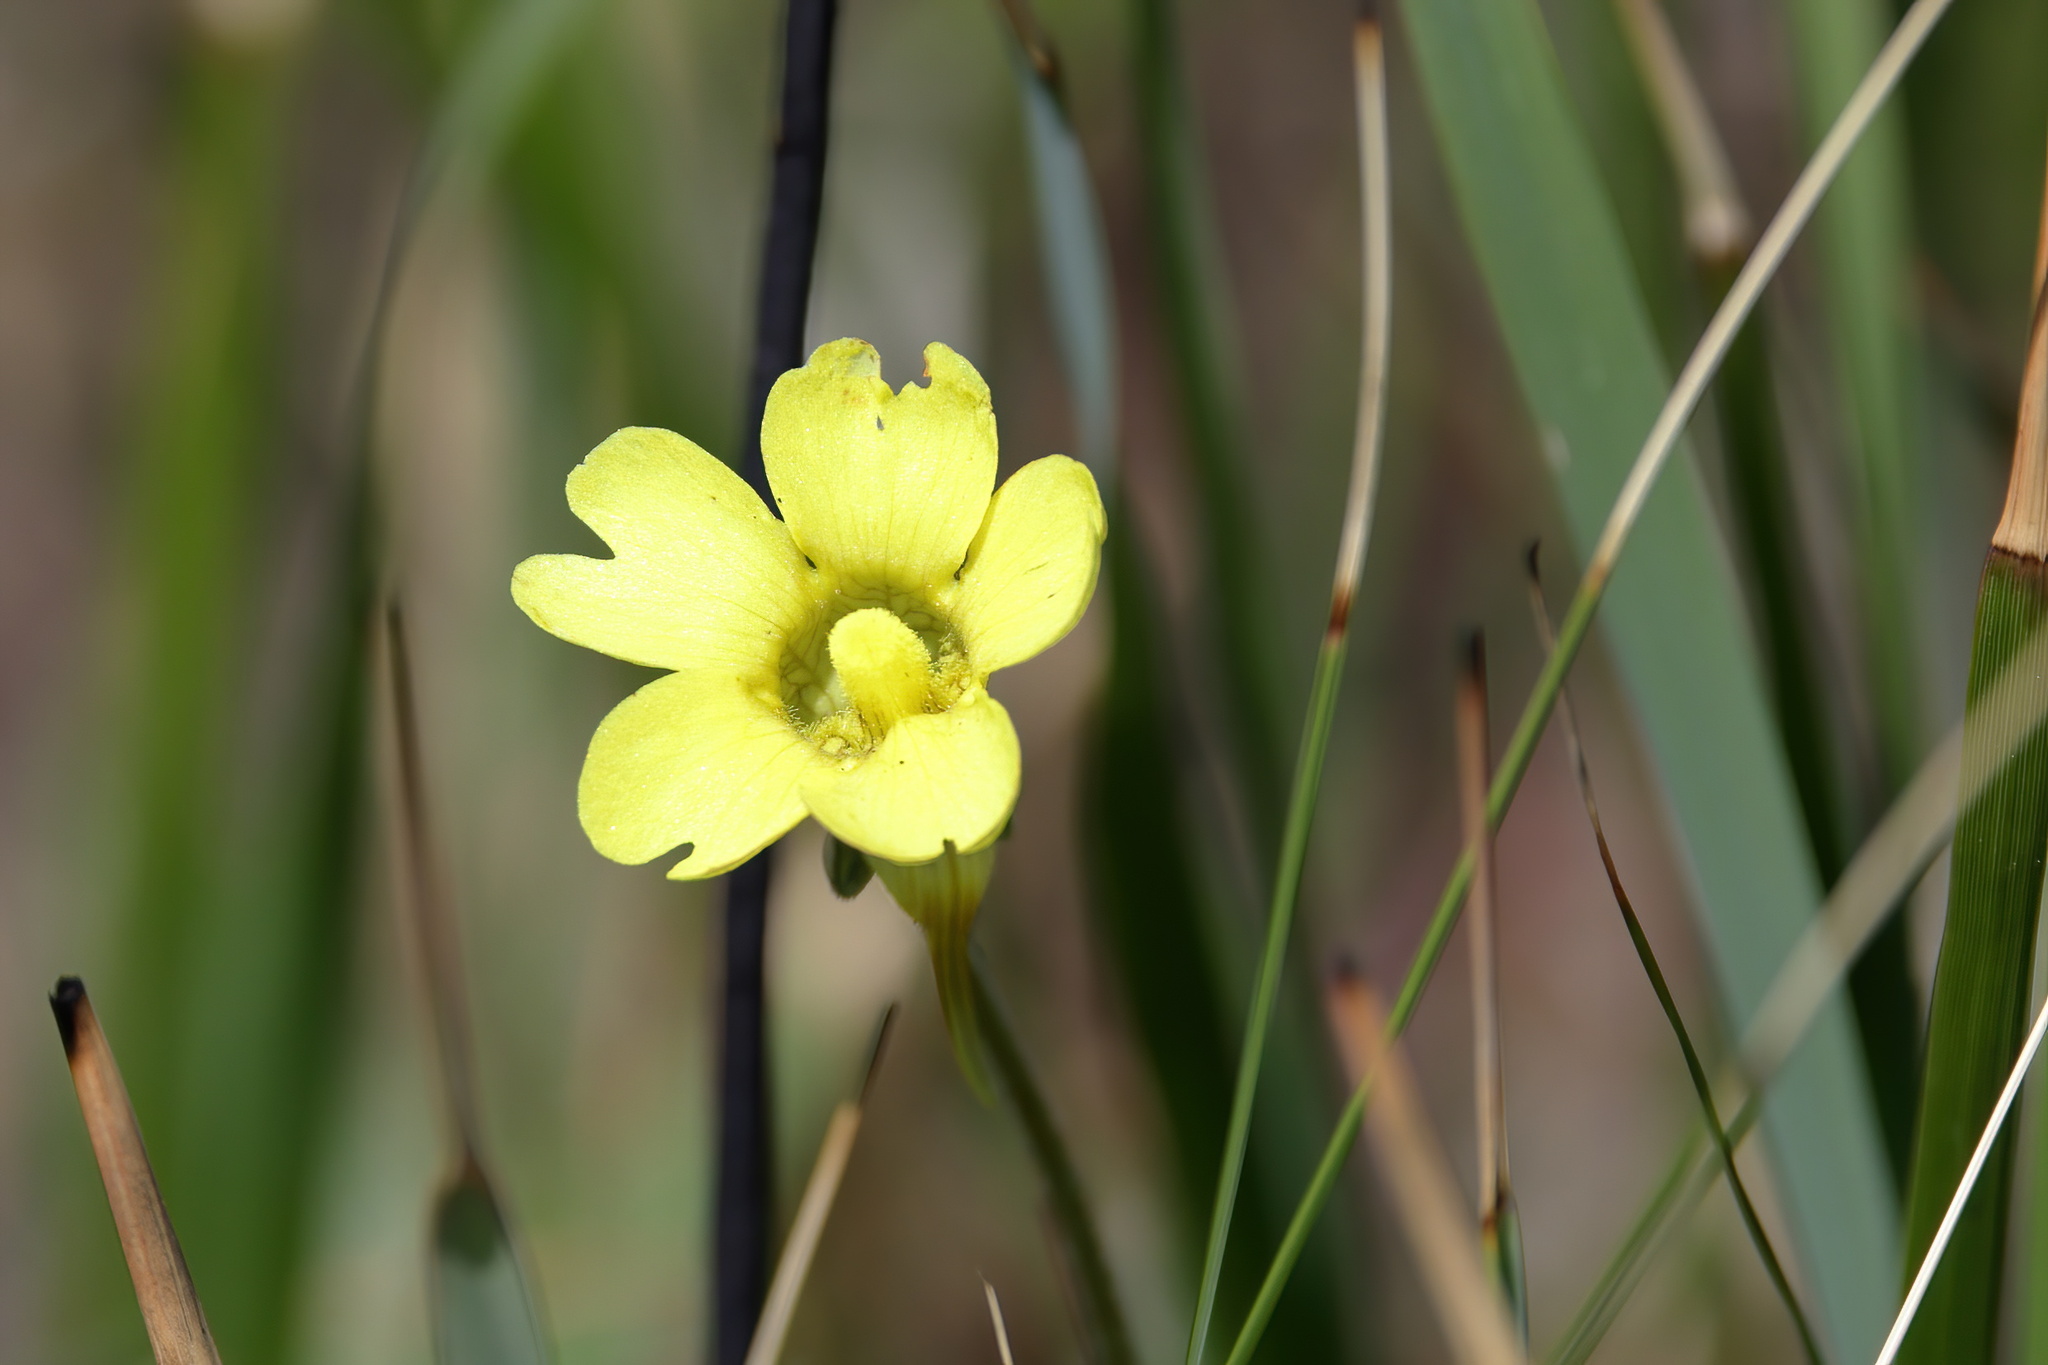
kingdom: Plantae
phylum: Tracheophyta
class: Magnoliopsida
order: Lamiales
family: Lentibulariaceae
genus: Pinguicula
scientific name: Pinguicula lutea
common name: Yellow butterwort
